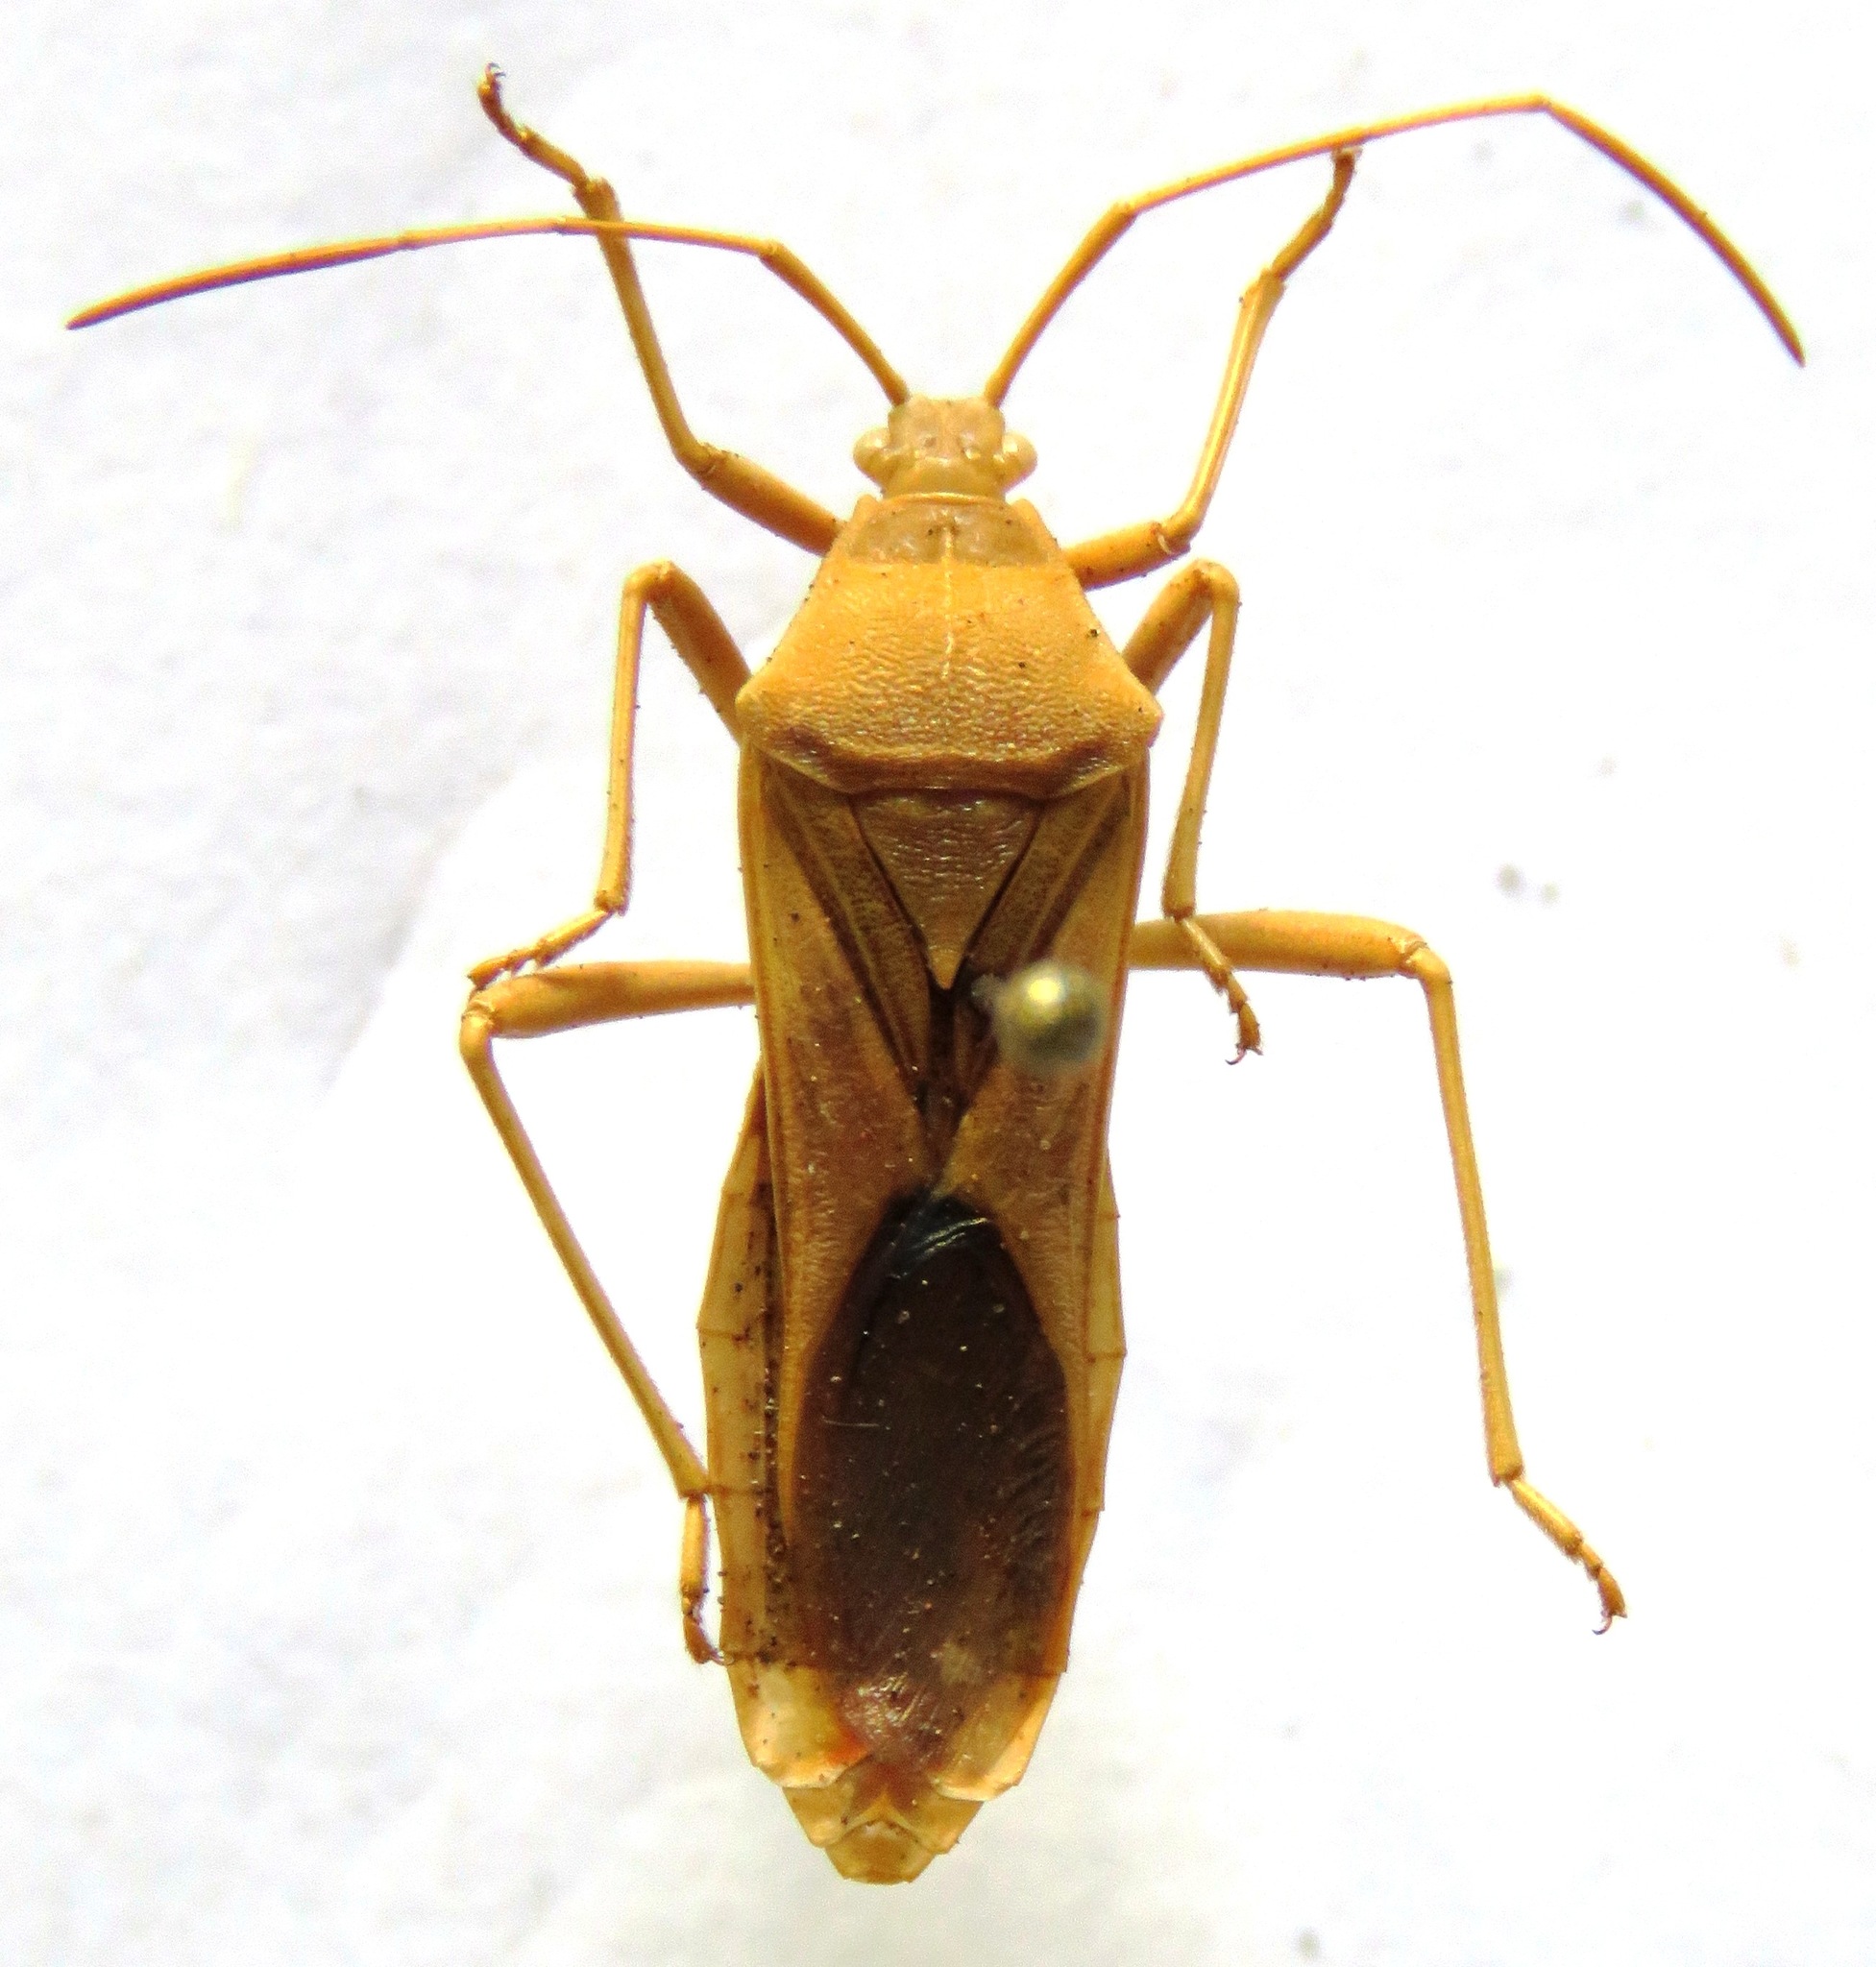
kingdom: Animalia
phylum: Arthropoda
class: Insecta
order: Hemiptera
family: Coreidae
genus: Savius
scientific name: Savius jurgiosus
